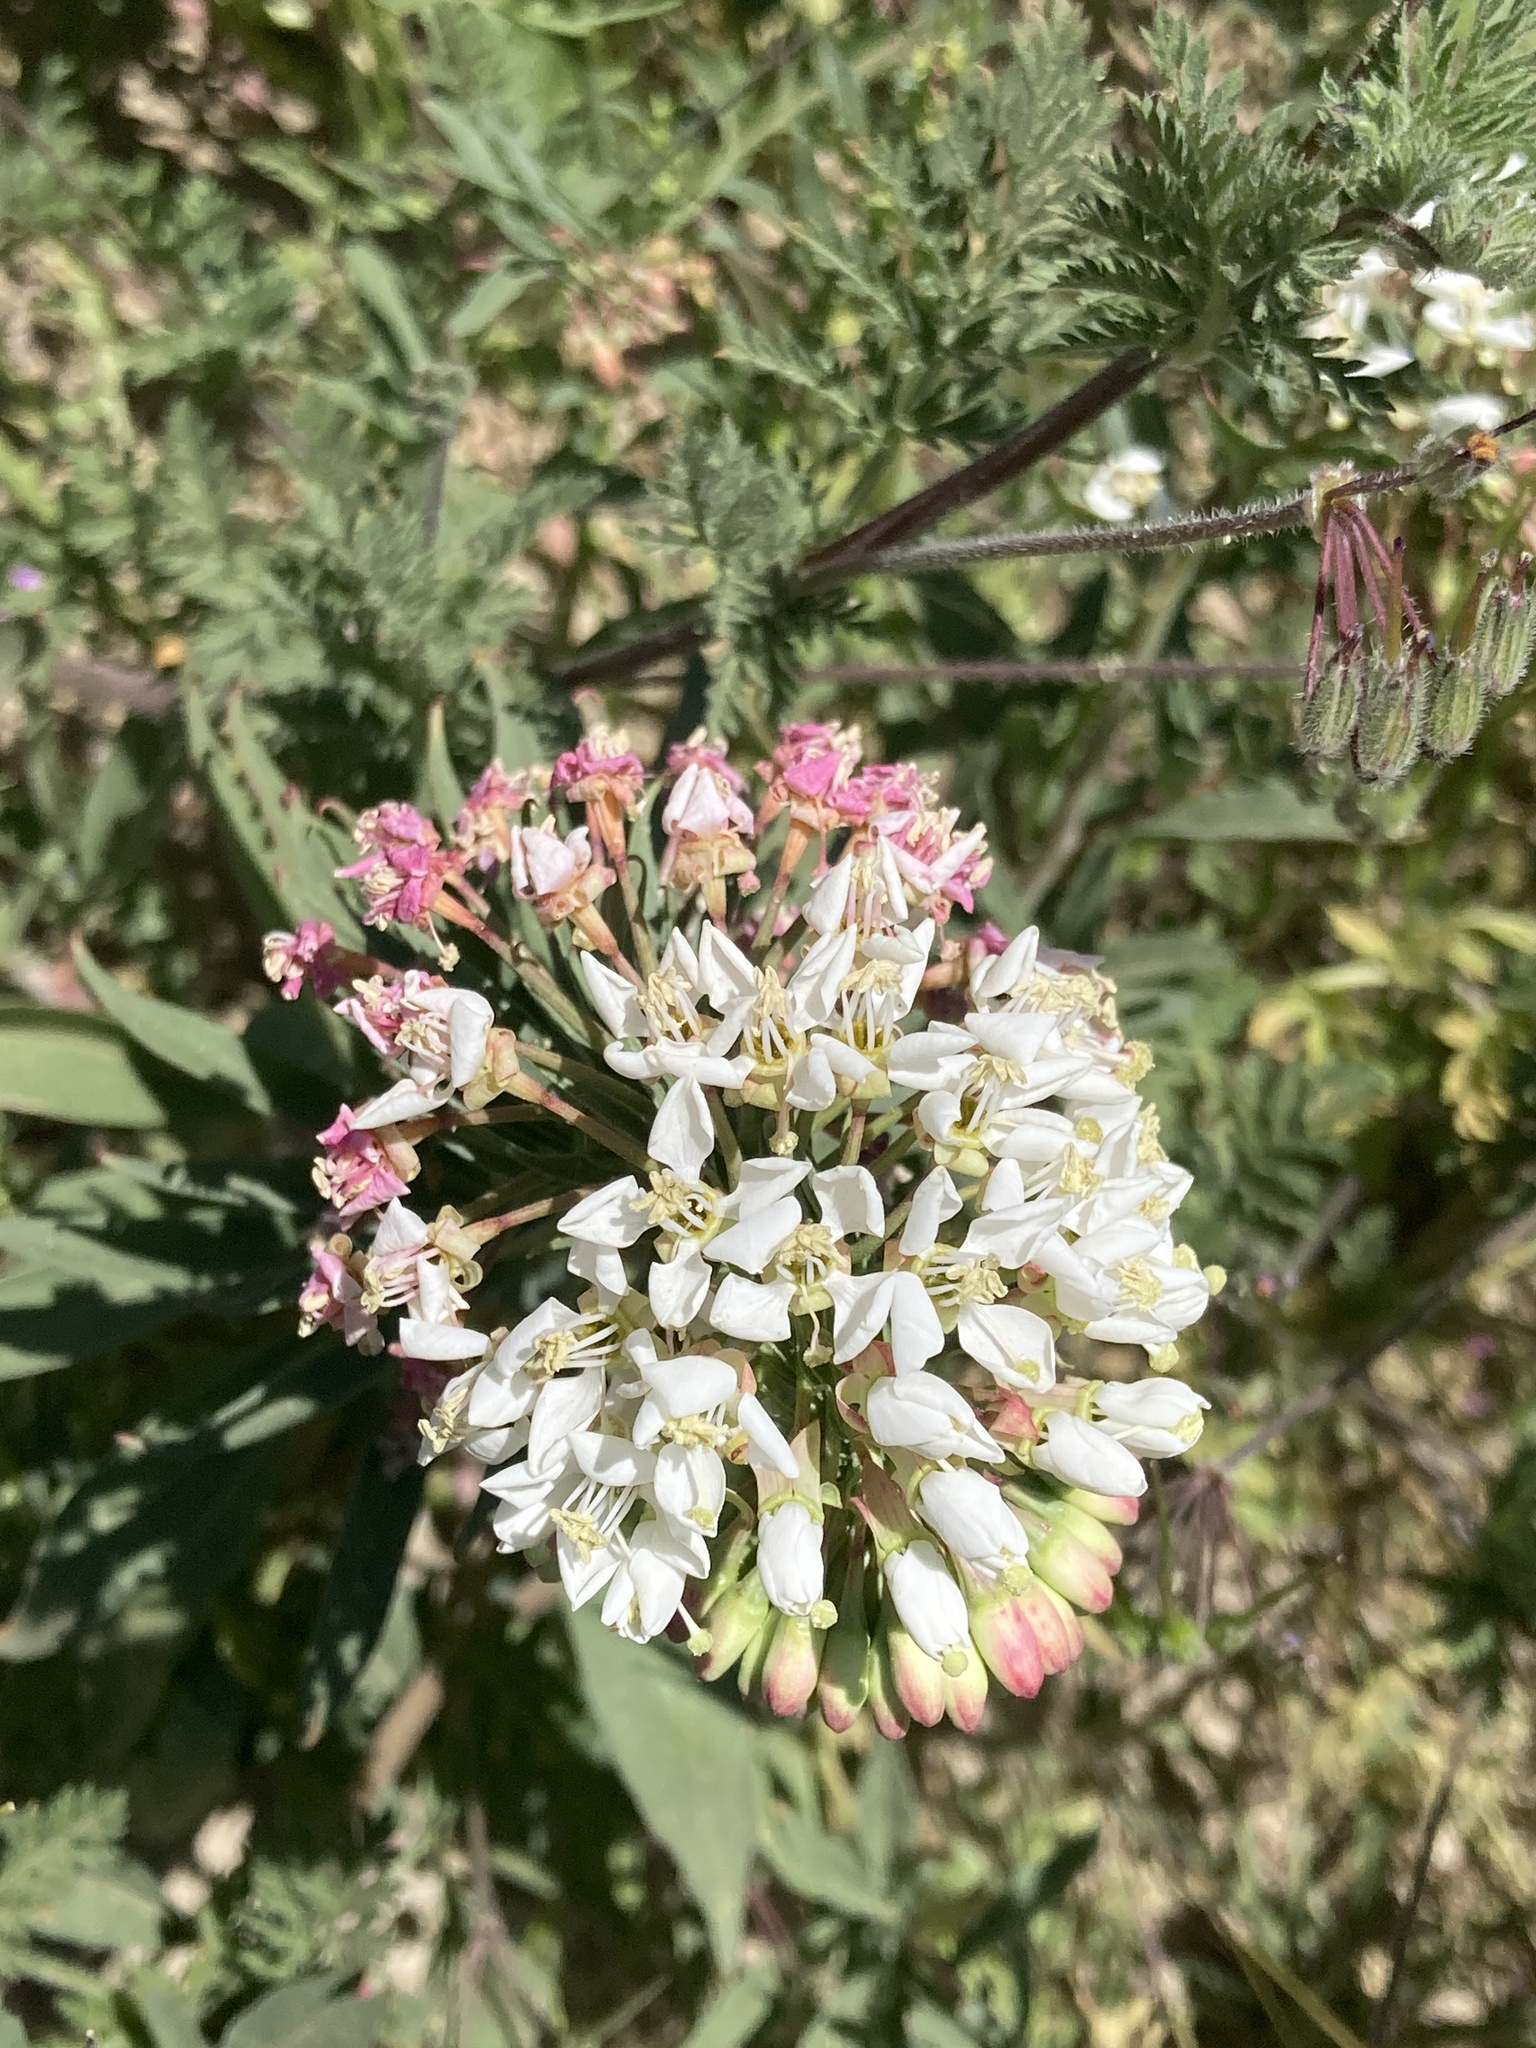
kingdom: Plantae
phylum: Tracheophyta
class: Magnoliopsida
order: Myrtales
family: Onagraceae
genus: Eremothera
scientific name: Eremothera boothii
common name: Booth's evening primrose
